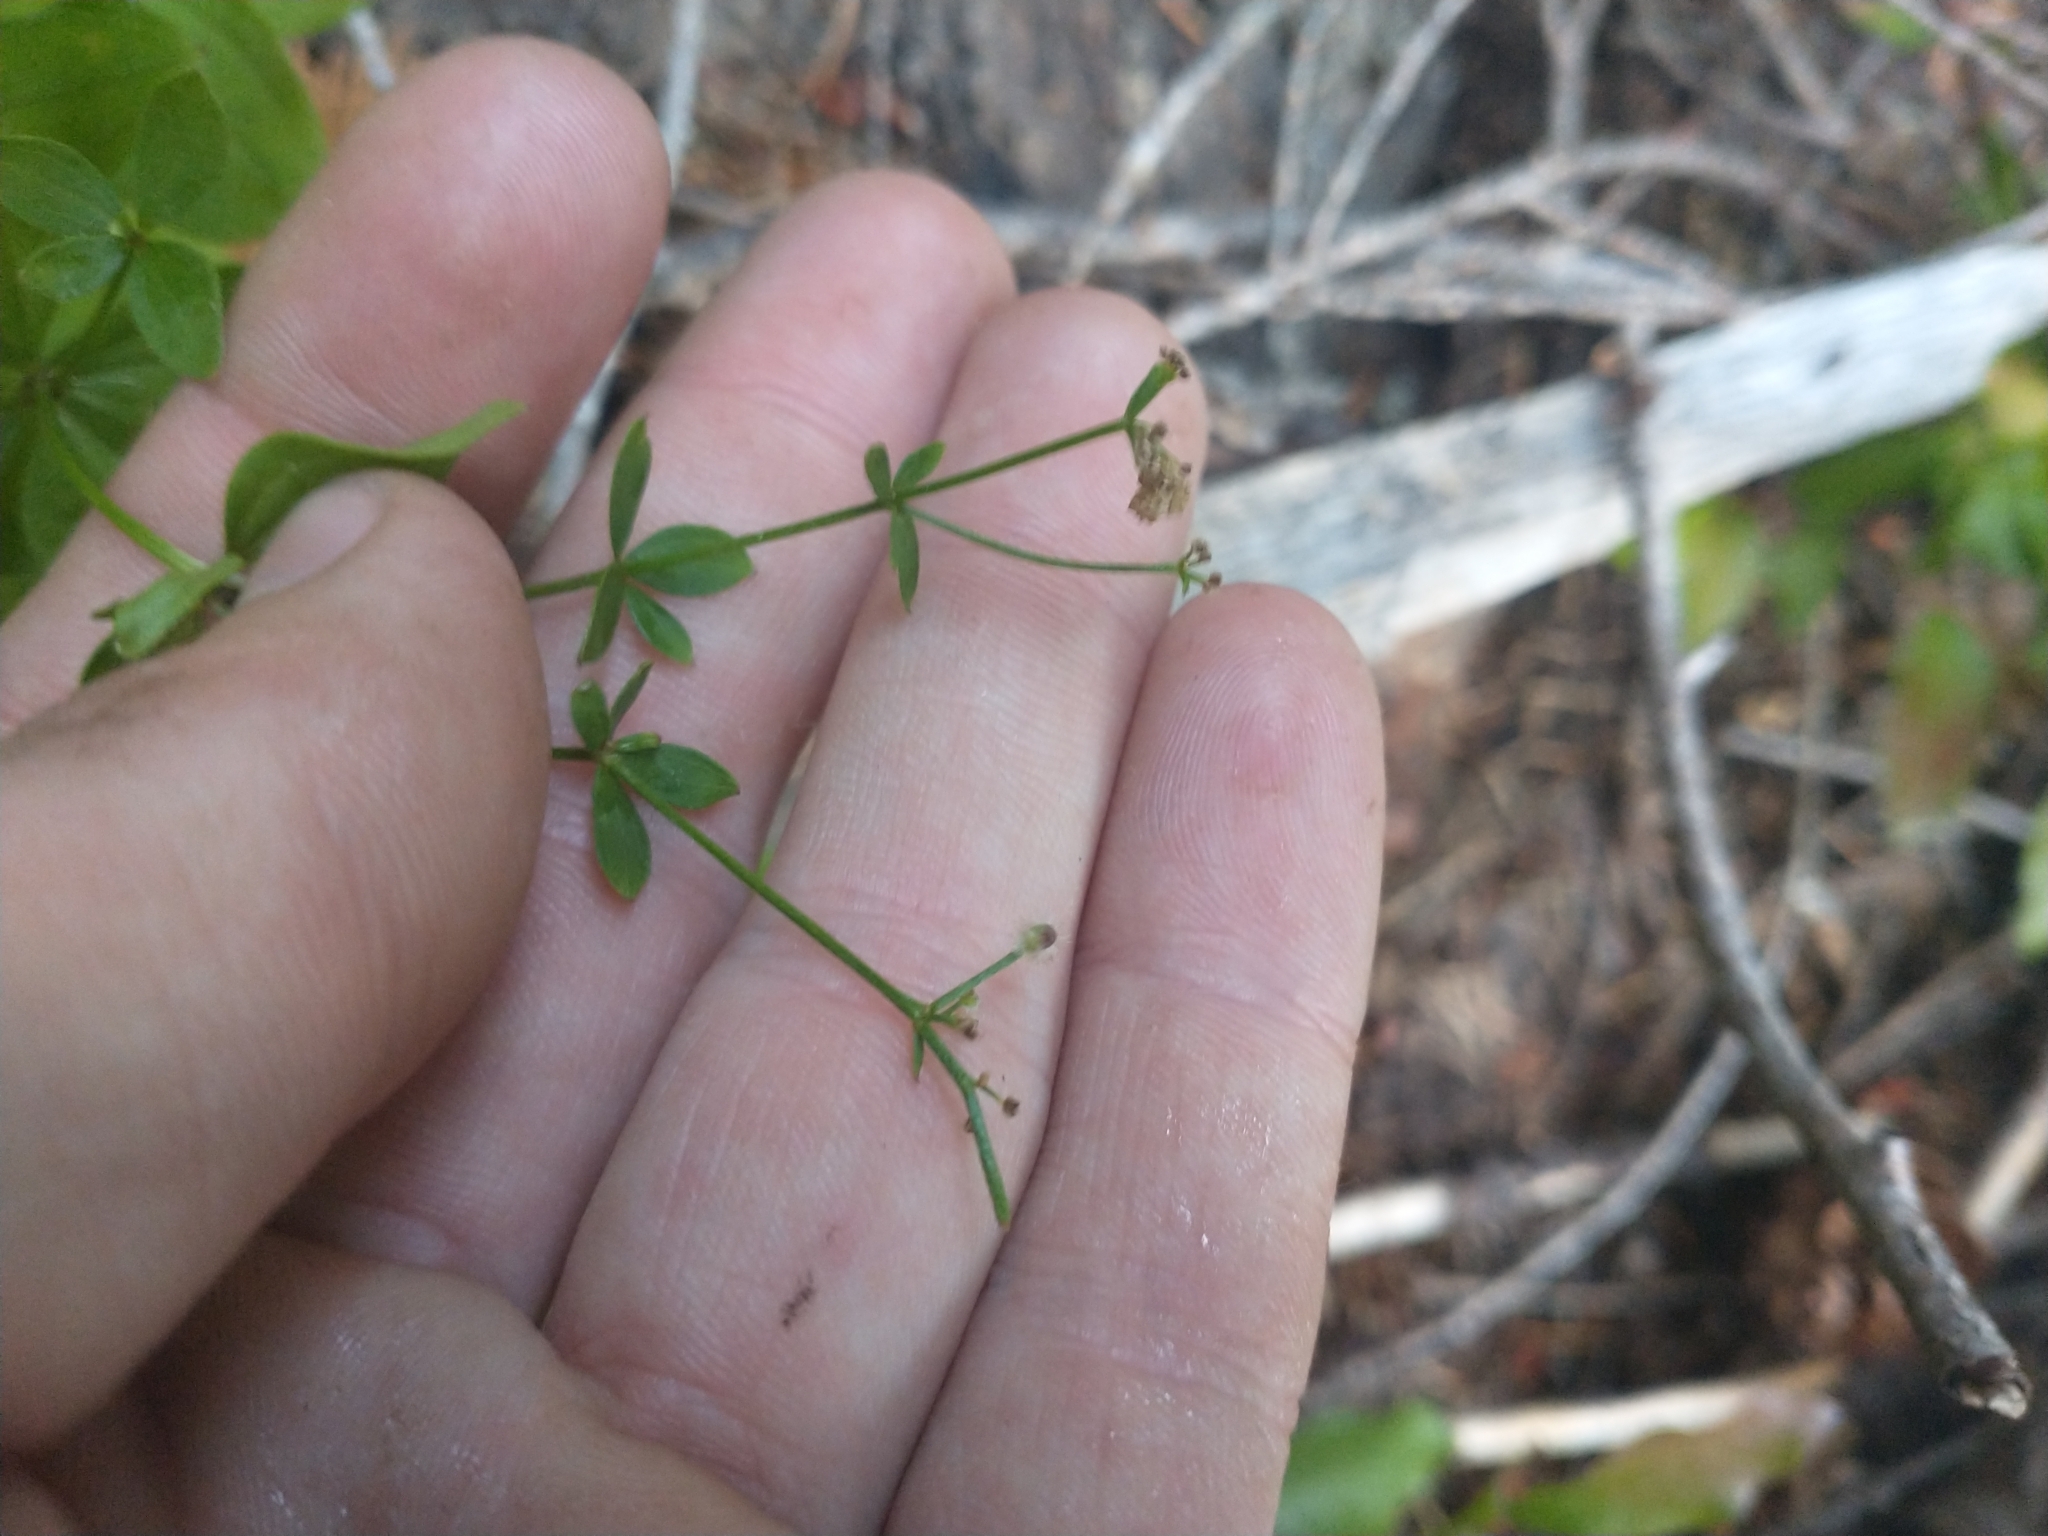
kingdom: Plantae
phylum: Tracheophyta
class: Magnoliopsida
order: Gentianales
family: Rubiaceae
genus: Galium
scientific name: Galium oreganum
